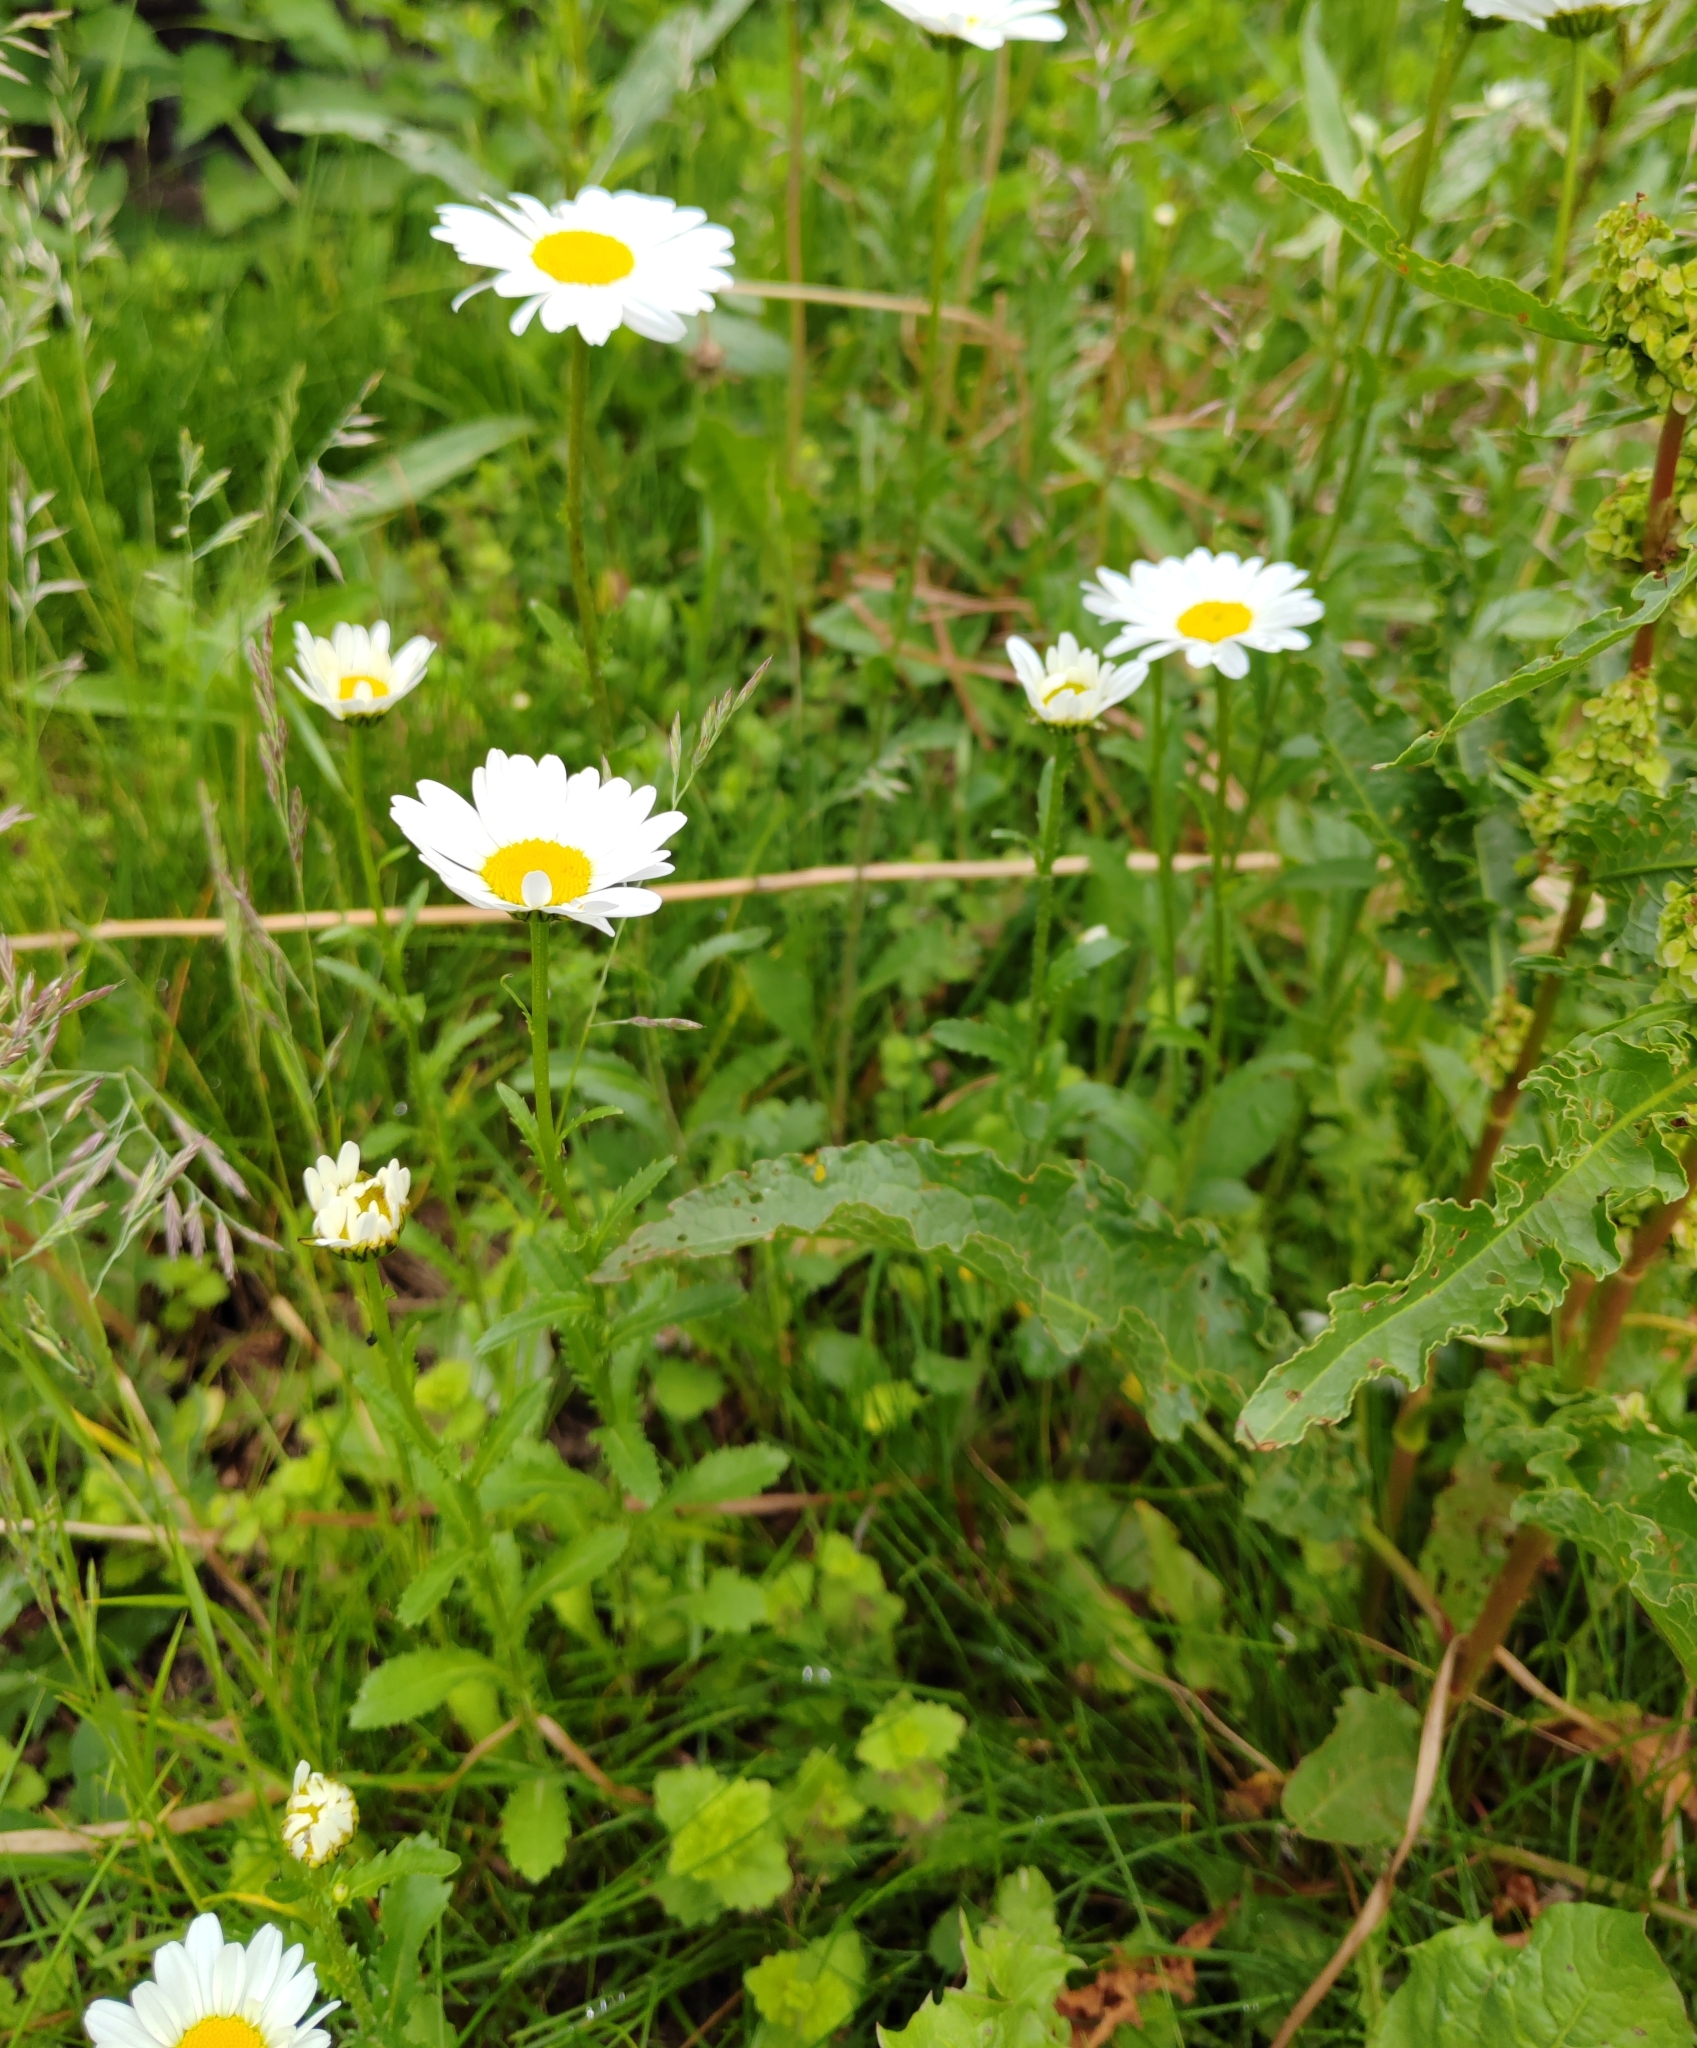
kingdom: Plantae
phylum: Tracheophyta
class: Magnoliopsida
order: Asterales
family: Asteraceae
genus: Leucanthemum
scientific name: Leucanthemum ircutianum
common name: Daisy
